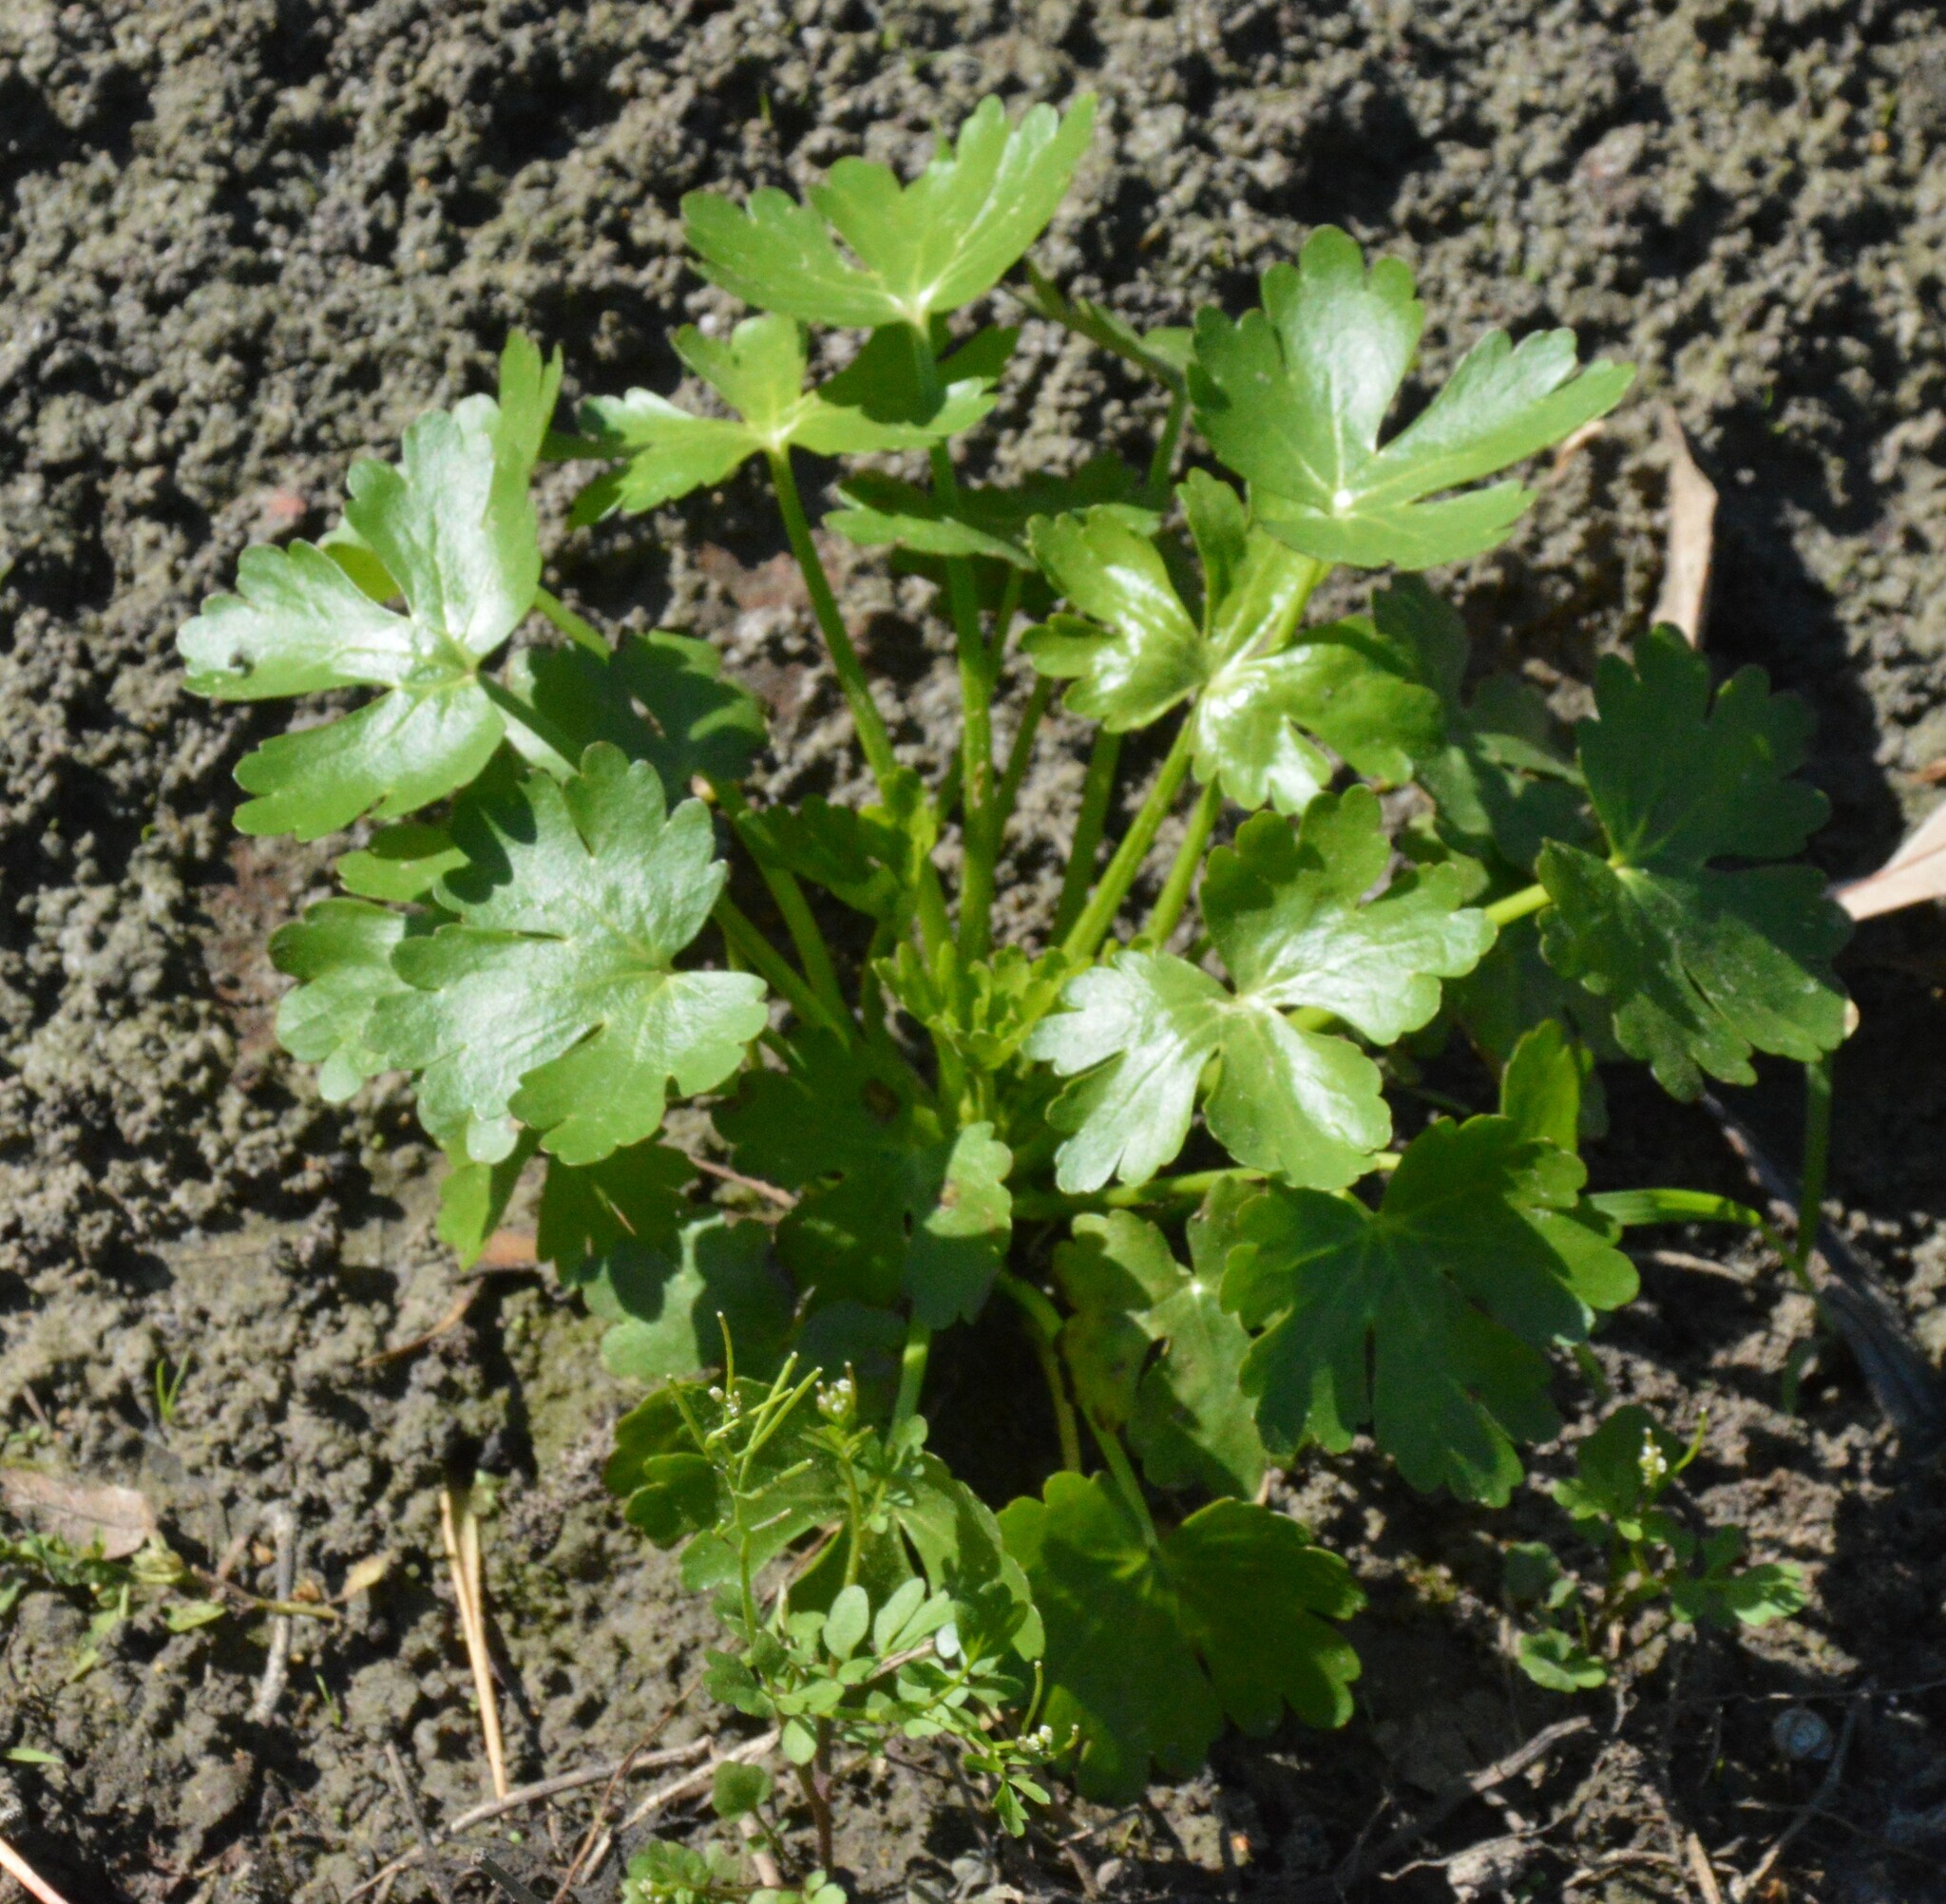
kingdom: Plantae
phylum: Tracheophyta
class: Magnoliopsida
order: Ranunculales
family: Ranunculaceae
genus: Ranunculus
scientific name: Ranunculus sceleratus
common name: Celery-leaved buttercup
